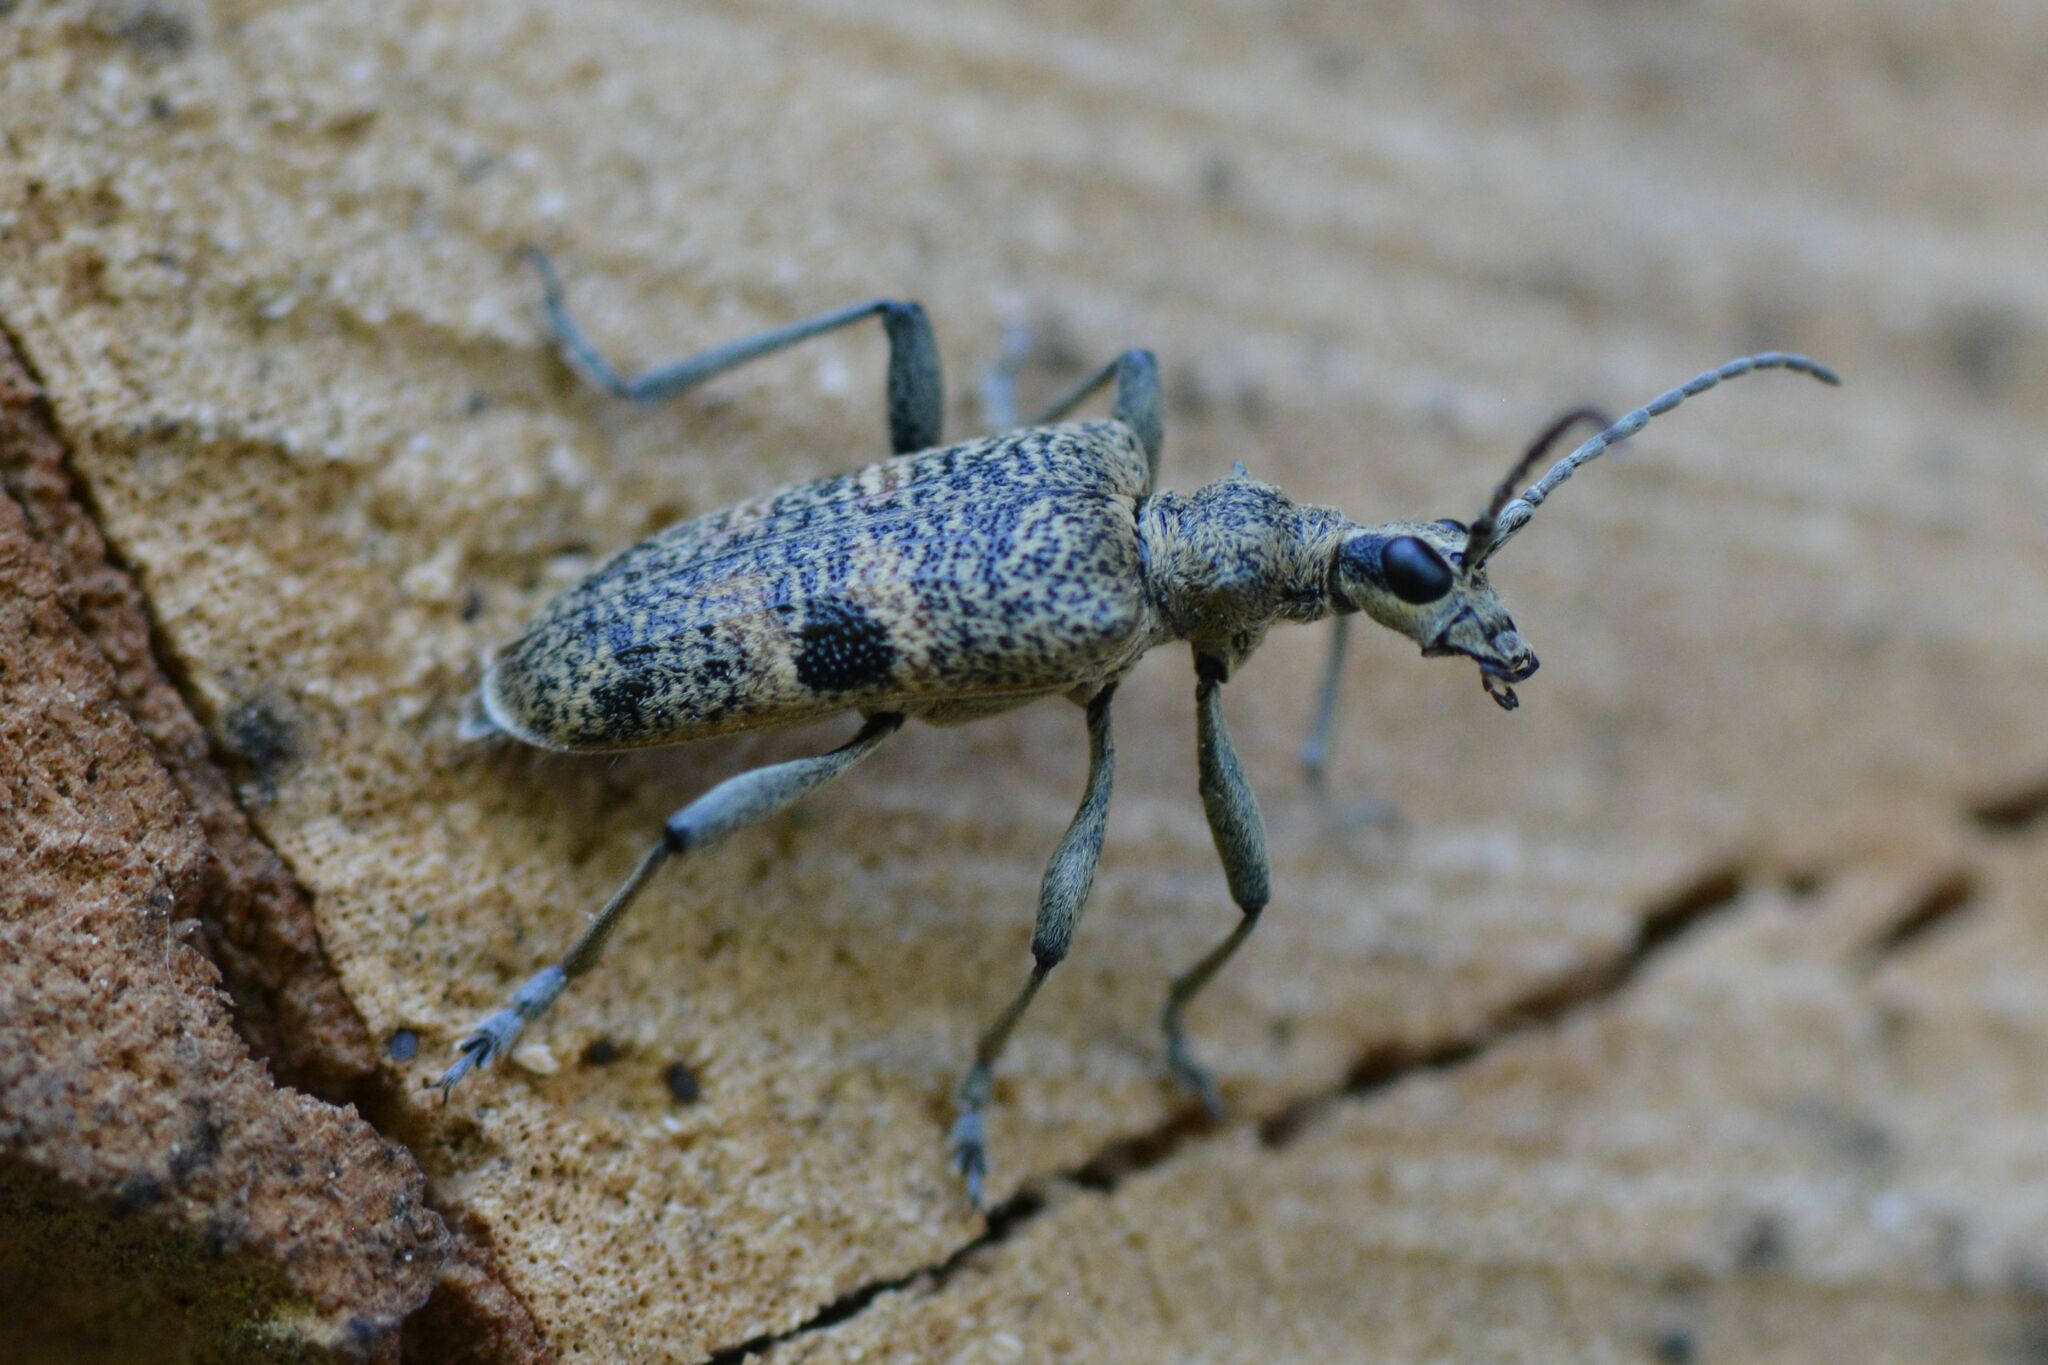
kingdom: Animalia
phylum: Arthropoda
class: Insecta
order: Coleoptera
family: Cerambycidae
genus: Rhagium
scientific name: Rhagium mordax
